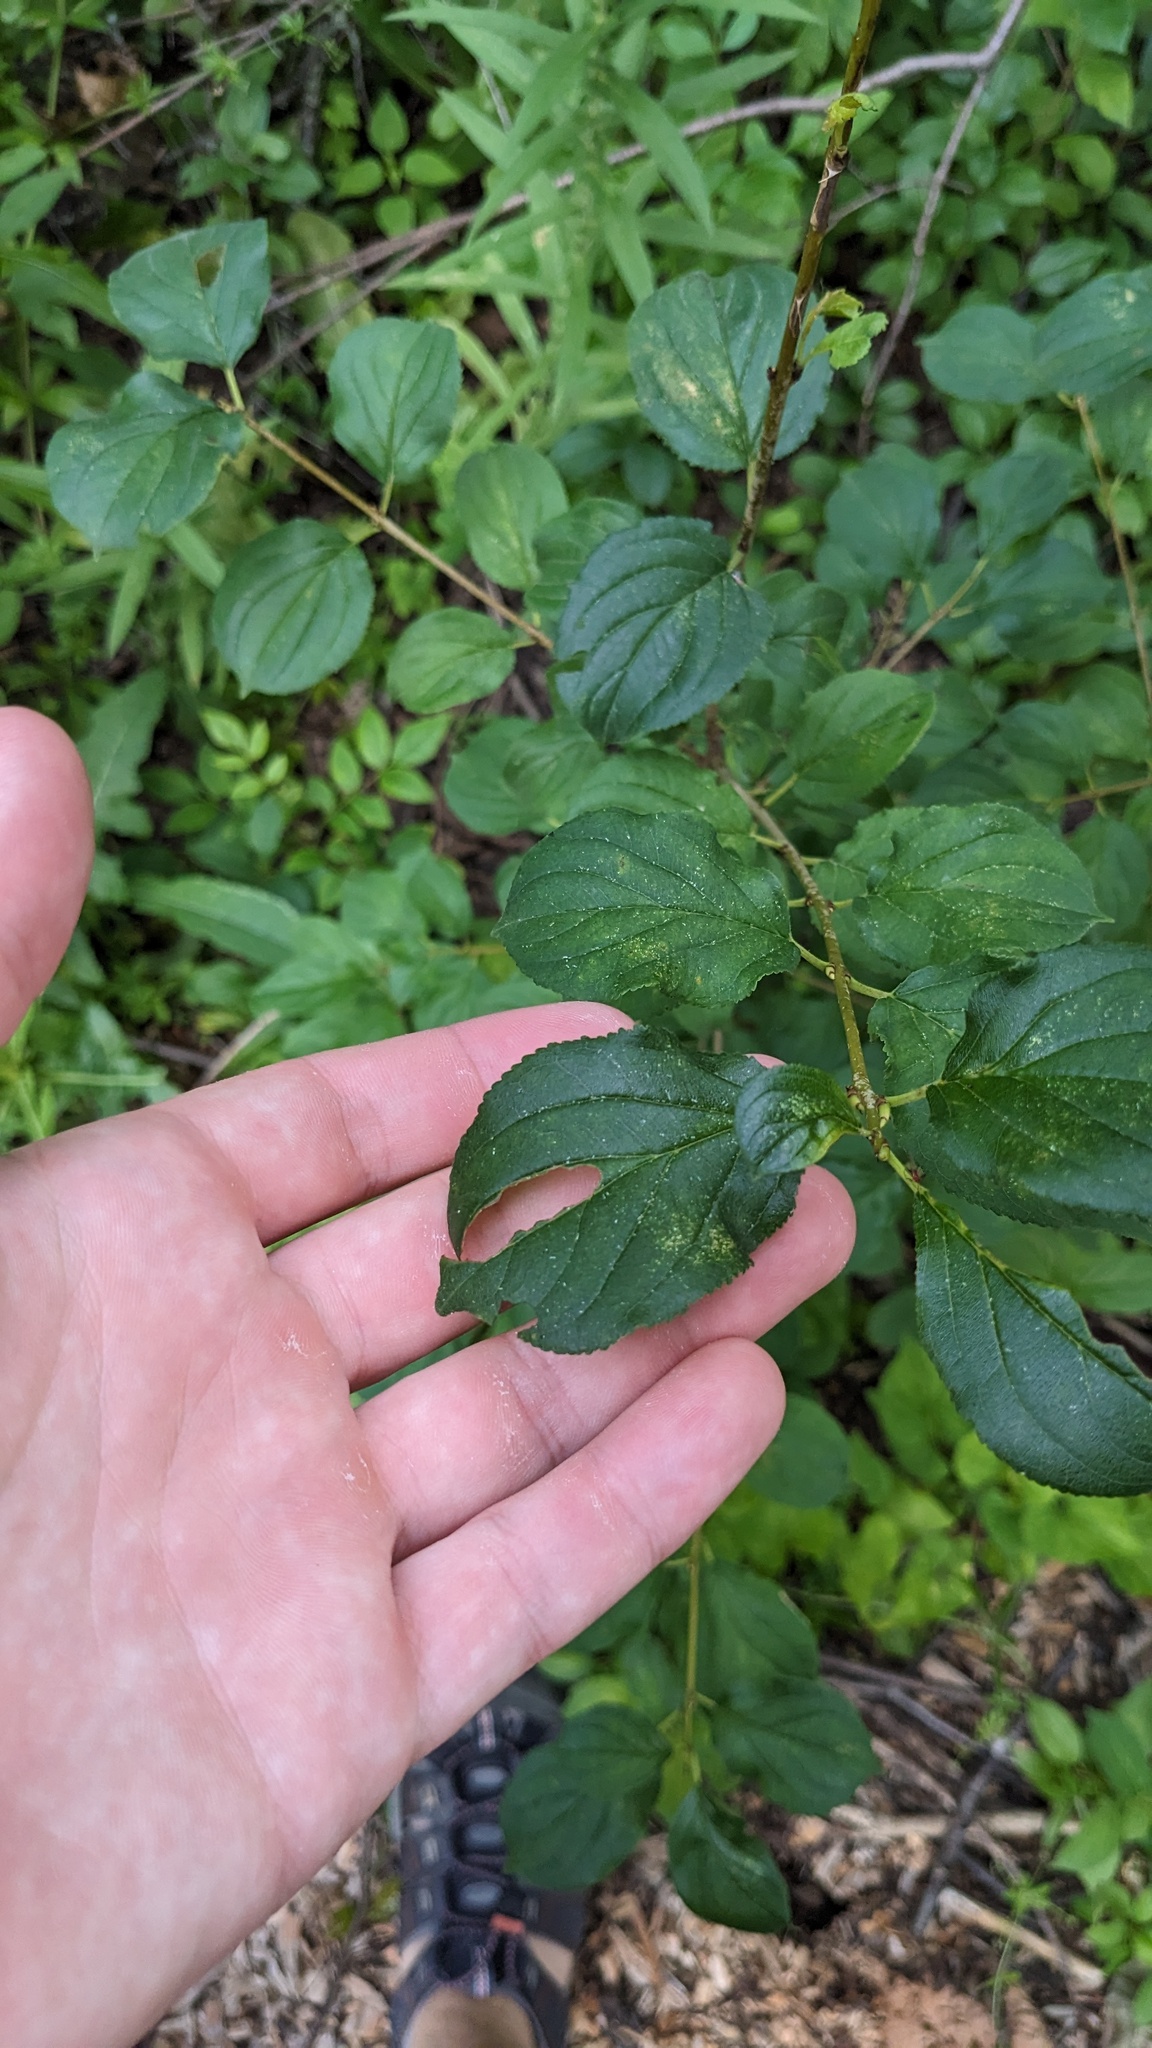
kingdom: Plantae
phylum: Tracheophyta
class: Magnoliopsida
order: Rosales
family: Rhamnaceae
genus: Rhamnus
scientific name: Rhamnus cathartica
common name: Common buckthorn
